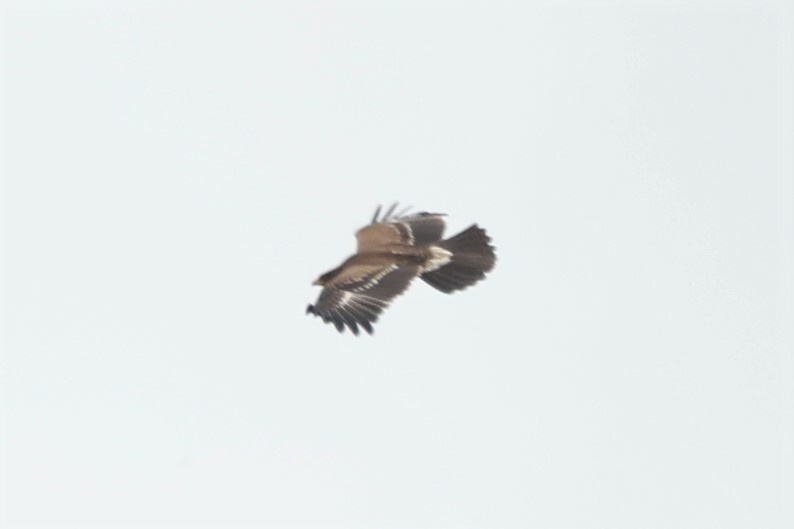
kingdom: Animalia
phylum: Chordata
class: Aves
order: Accipitriformes
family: Accipitridae
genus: Aquila
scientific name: Aquila pomarina
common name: Lesser spotted eagle
